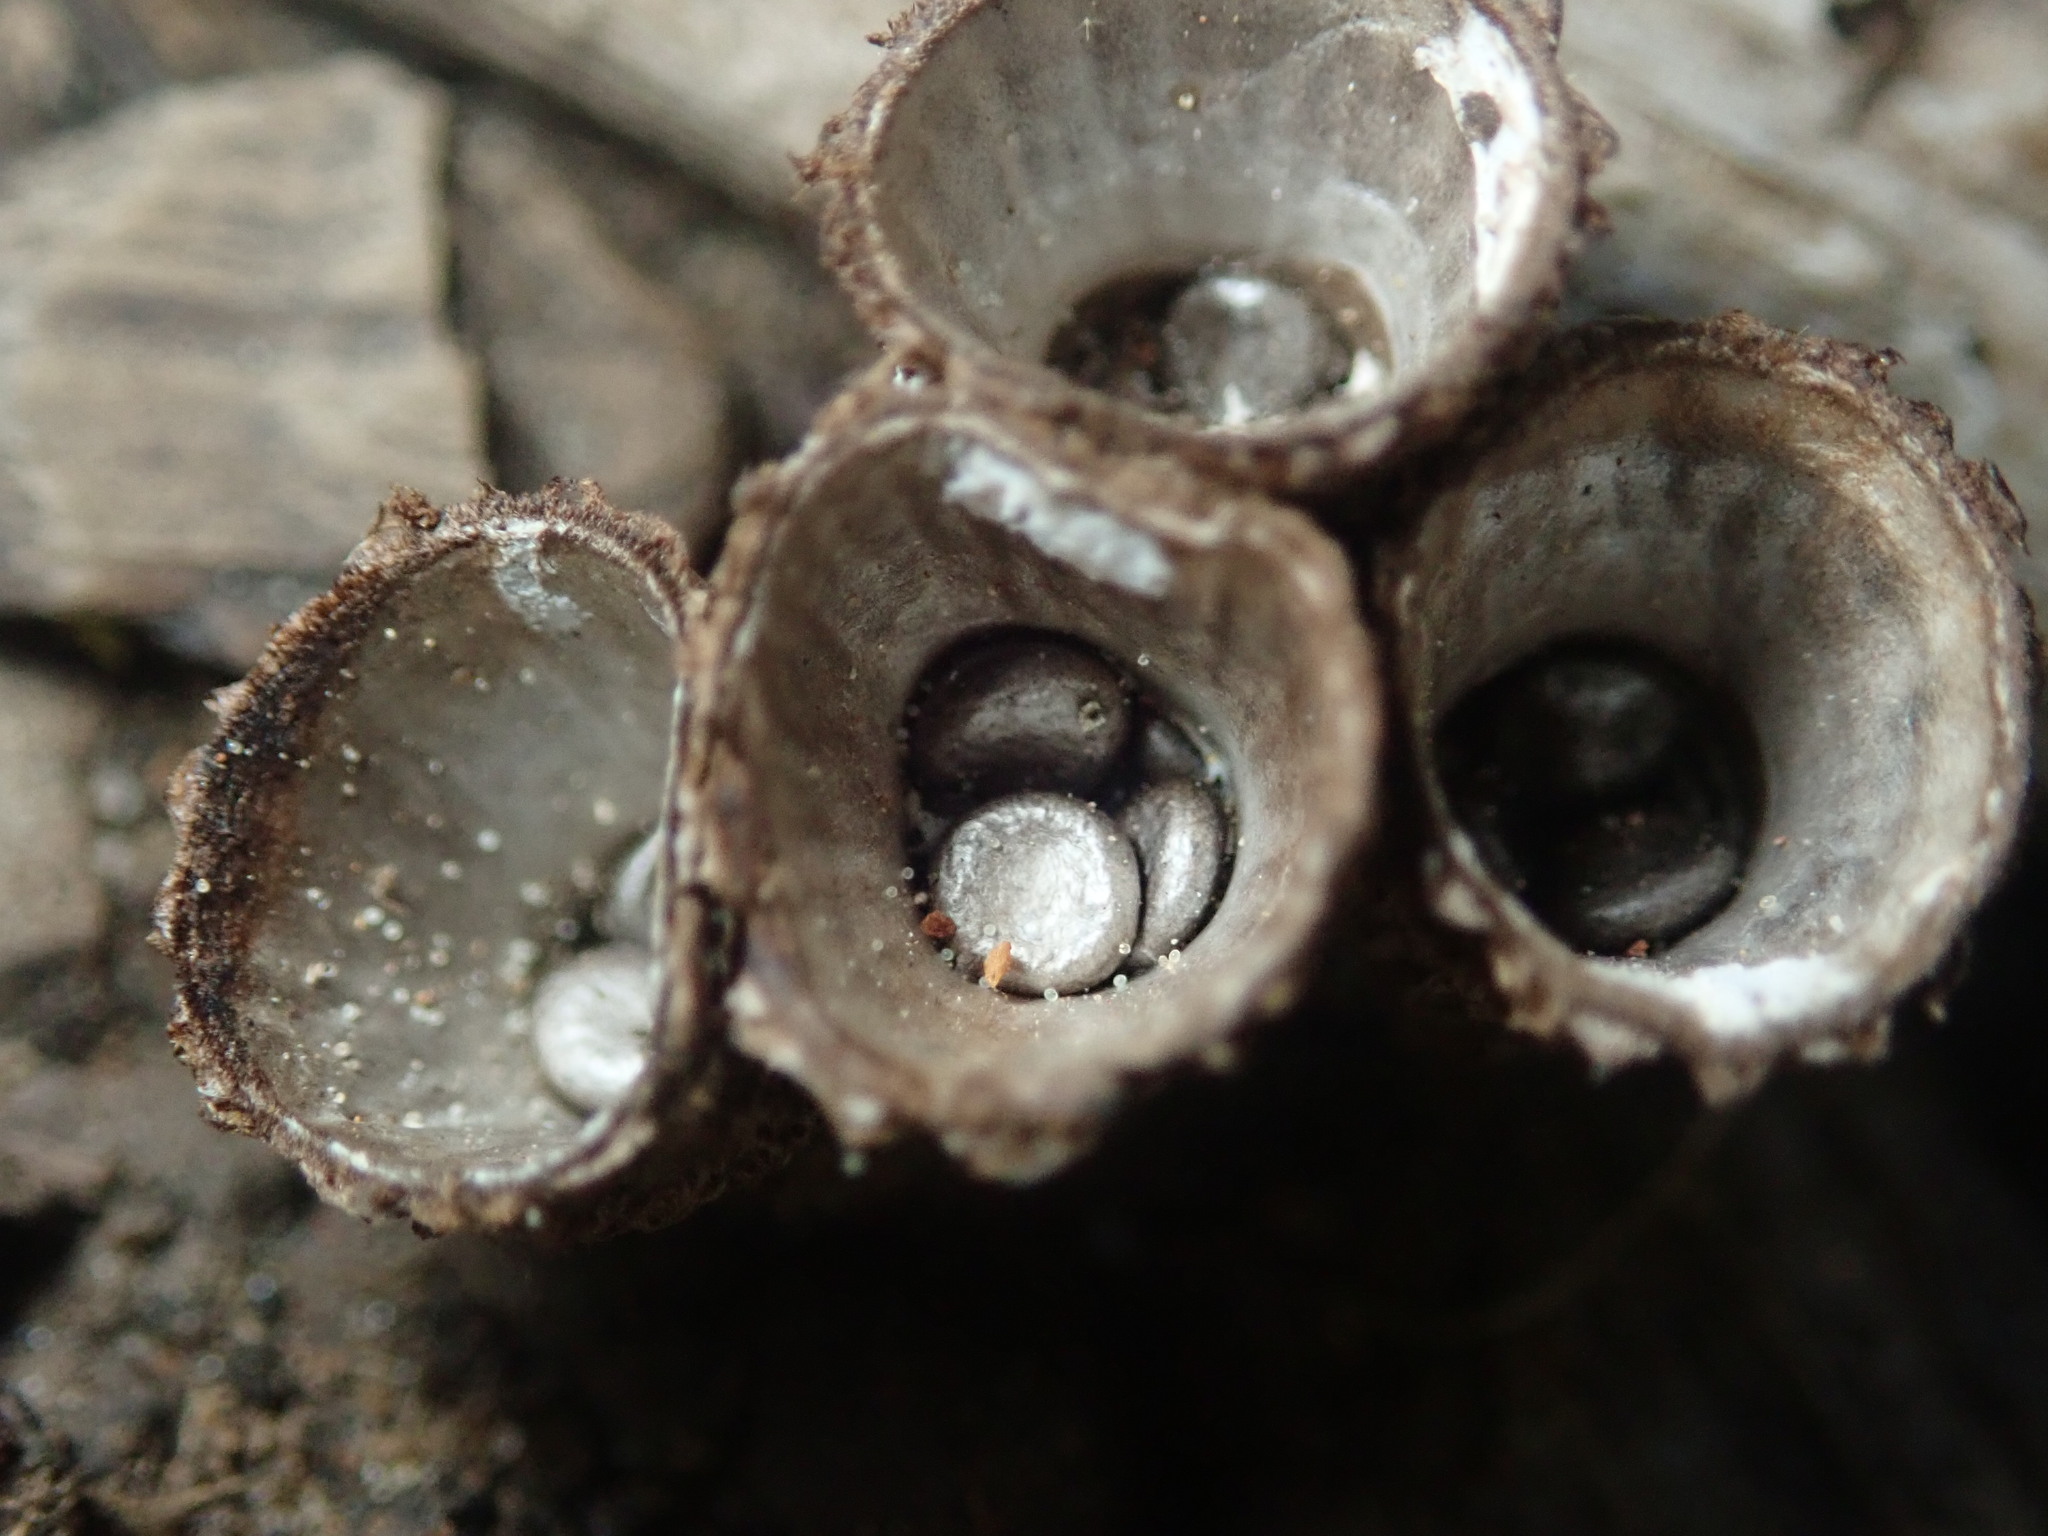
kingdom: Fungi
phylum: Basidiomycota
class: Agaricomycetes
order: Agaricales
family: Agaricaceae
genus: Cyathus
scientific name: Cyathus striatus
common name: Fluted bird's nest
